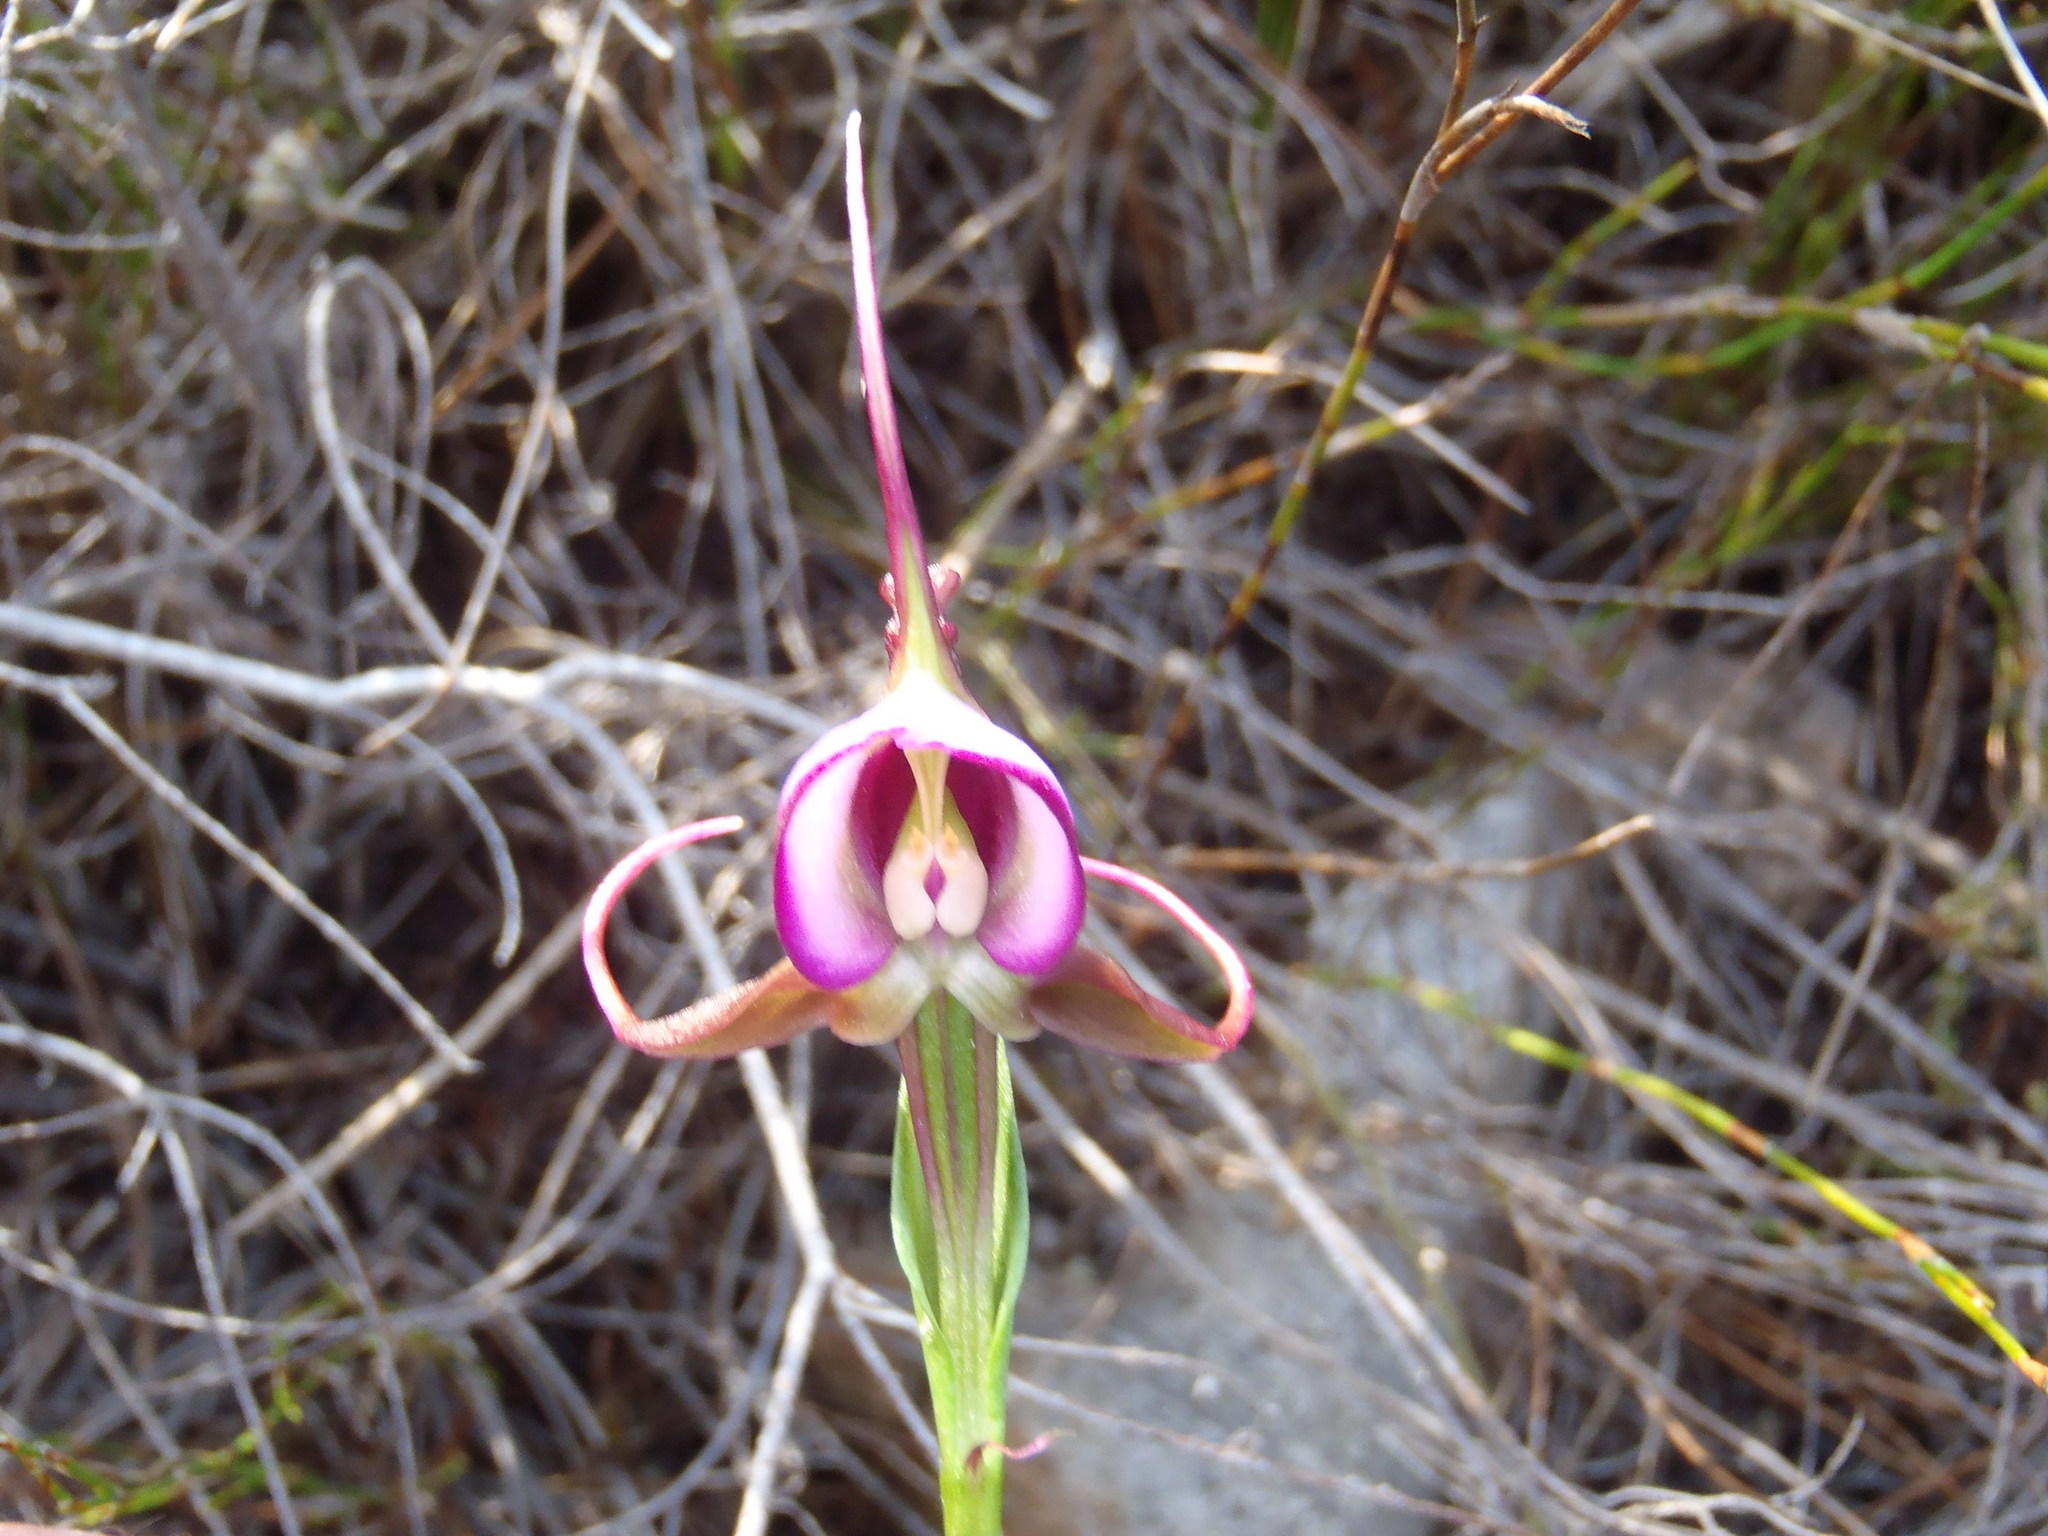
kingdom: Plantae
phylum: Tracheophyta
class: Liliopsida
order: Asparagales
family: Orchidaceae
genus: Disperis
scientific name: Disperis capensis
